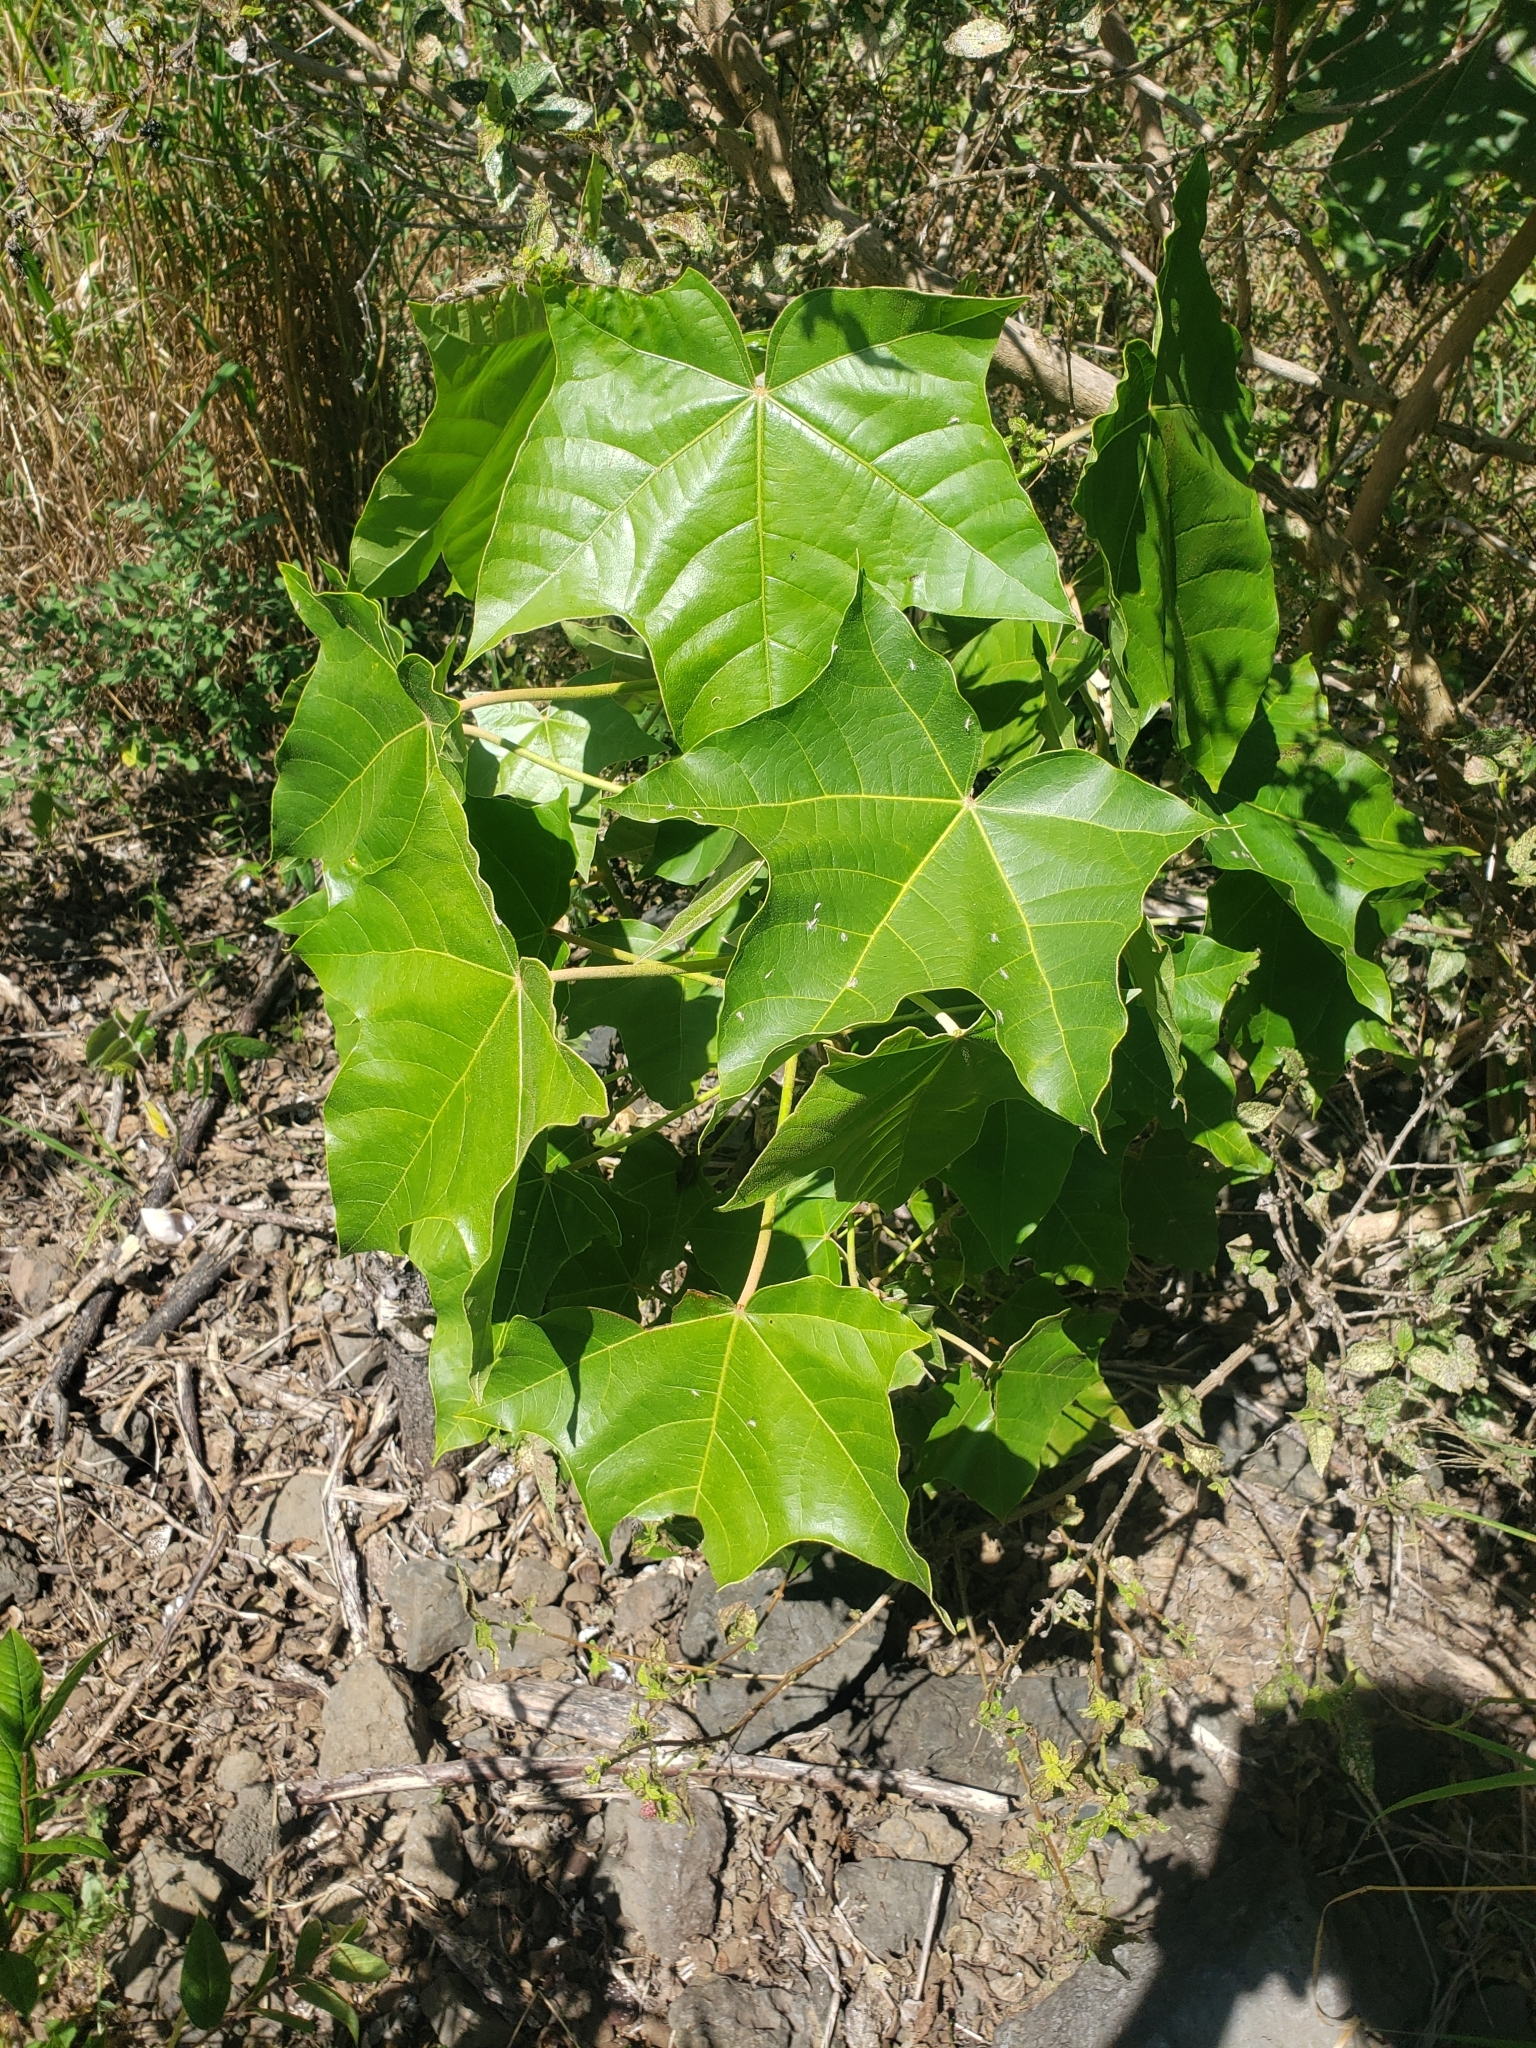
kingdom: Plantae
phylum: Tracheophyta
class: Magnoliopsida
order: Malpighiales
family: Euphorbiaceae
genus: Aleurites
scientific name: Aleurites moluccanus
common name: Candlenut tree
